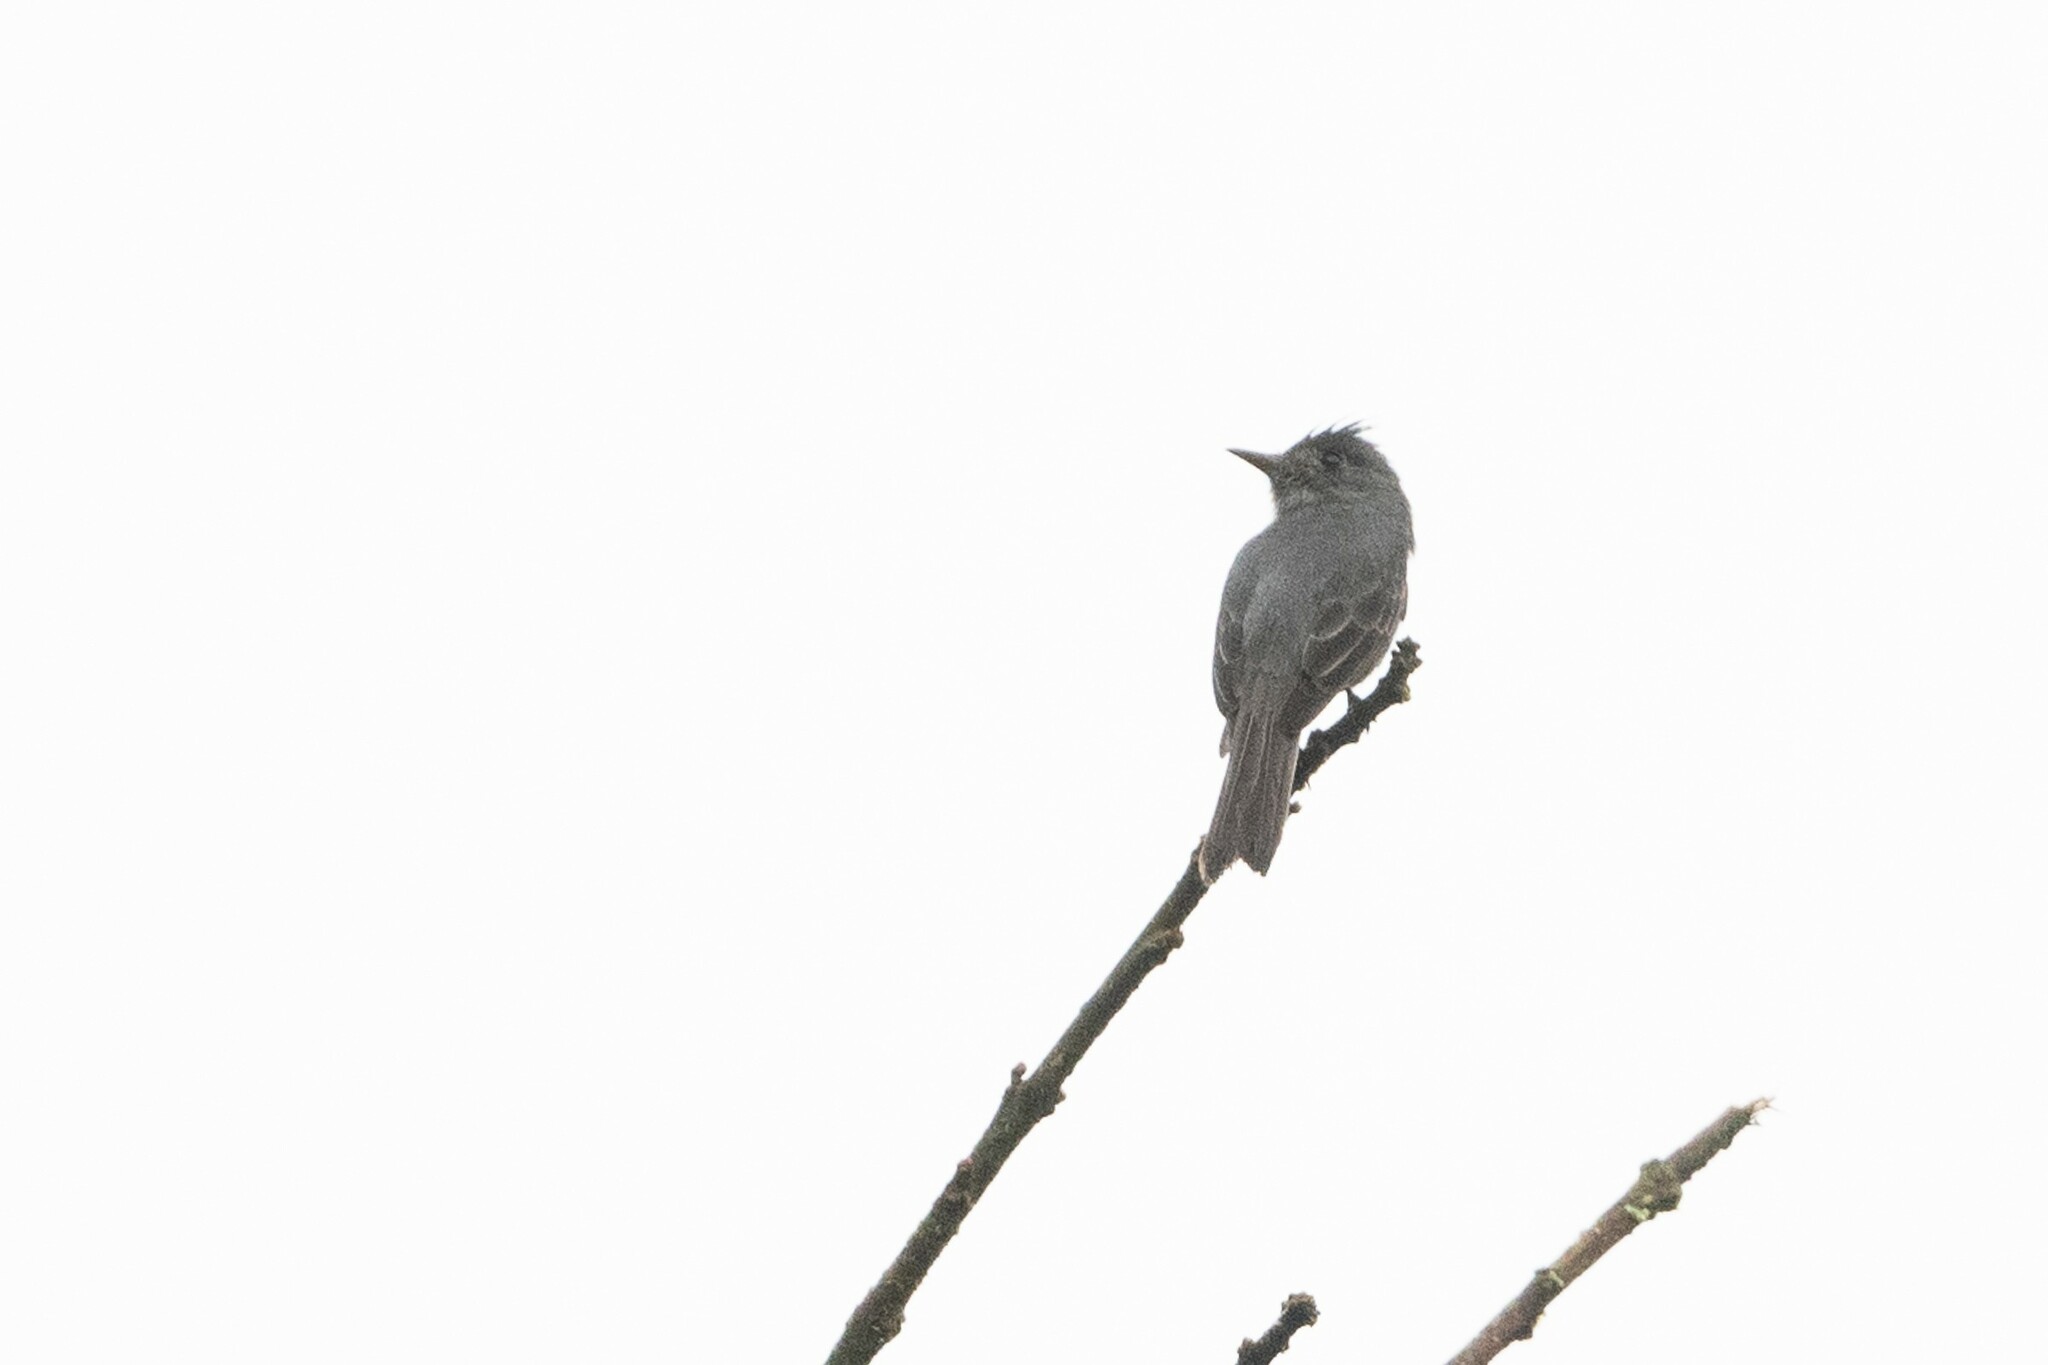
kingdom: Animalia
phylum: Chordata
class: Aves
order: Passeriformes
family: Tyrannidae
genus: Contopus
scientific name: Contopus fumigatus
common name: Smoke-colored pewee
